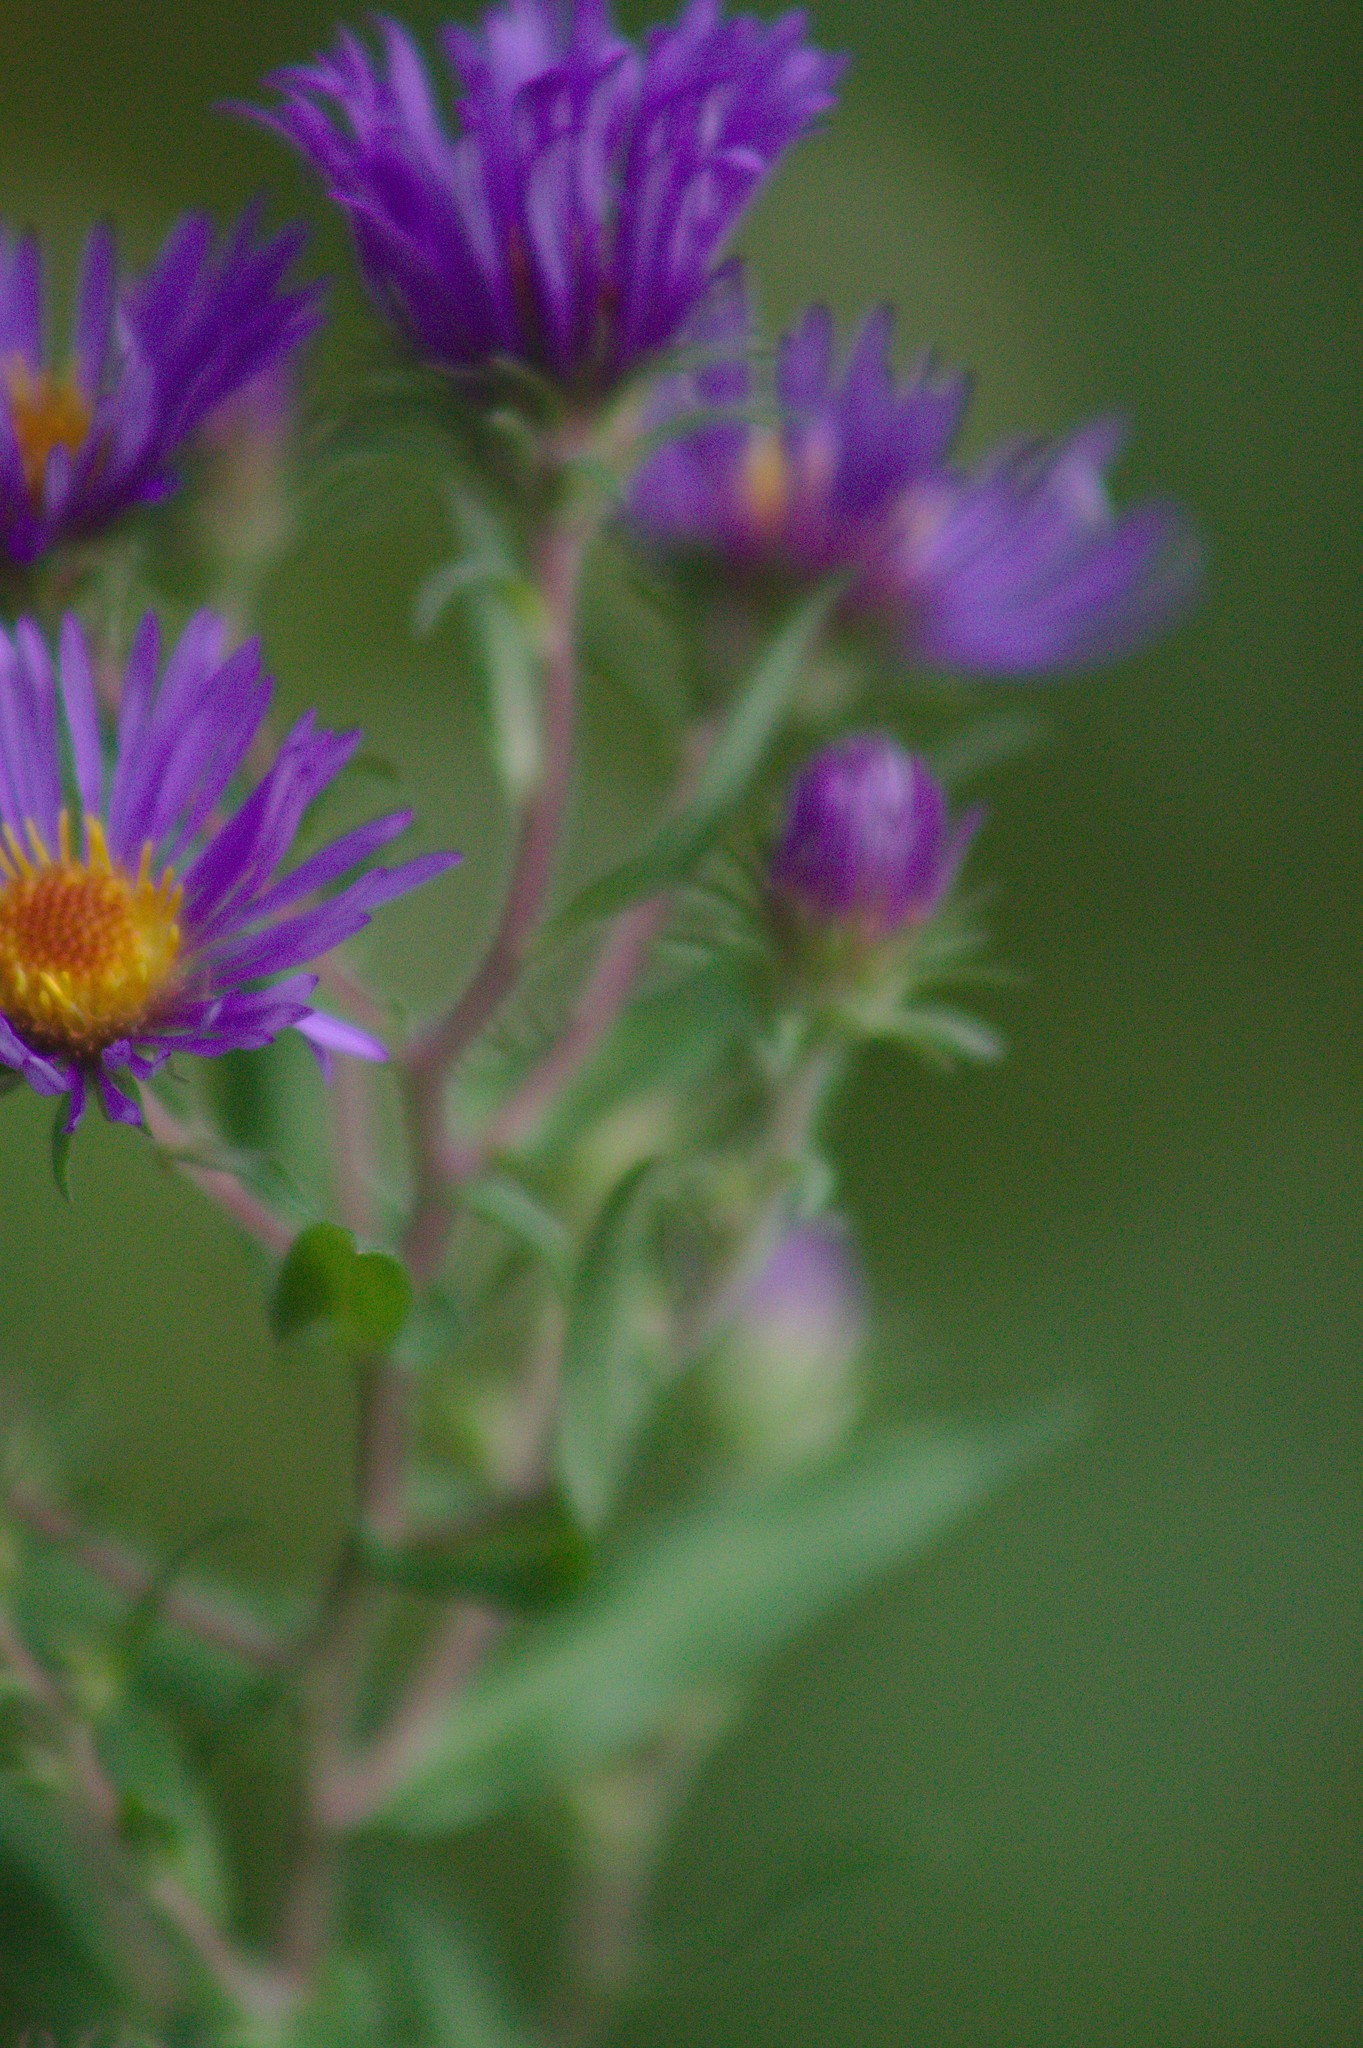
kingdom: Plantae
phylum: Tracheophyta
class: Magnoliopsida
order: Asterales
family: Asteraceae
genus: Symphyotrichum
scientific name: Symphyotrichum novae-angliae
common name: Michaelmas daisy
